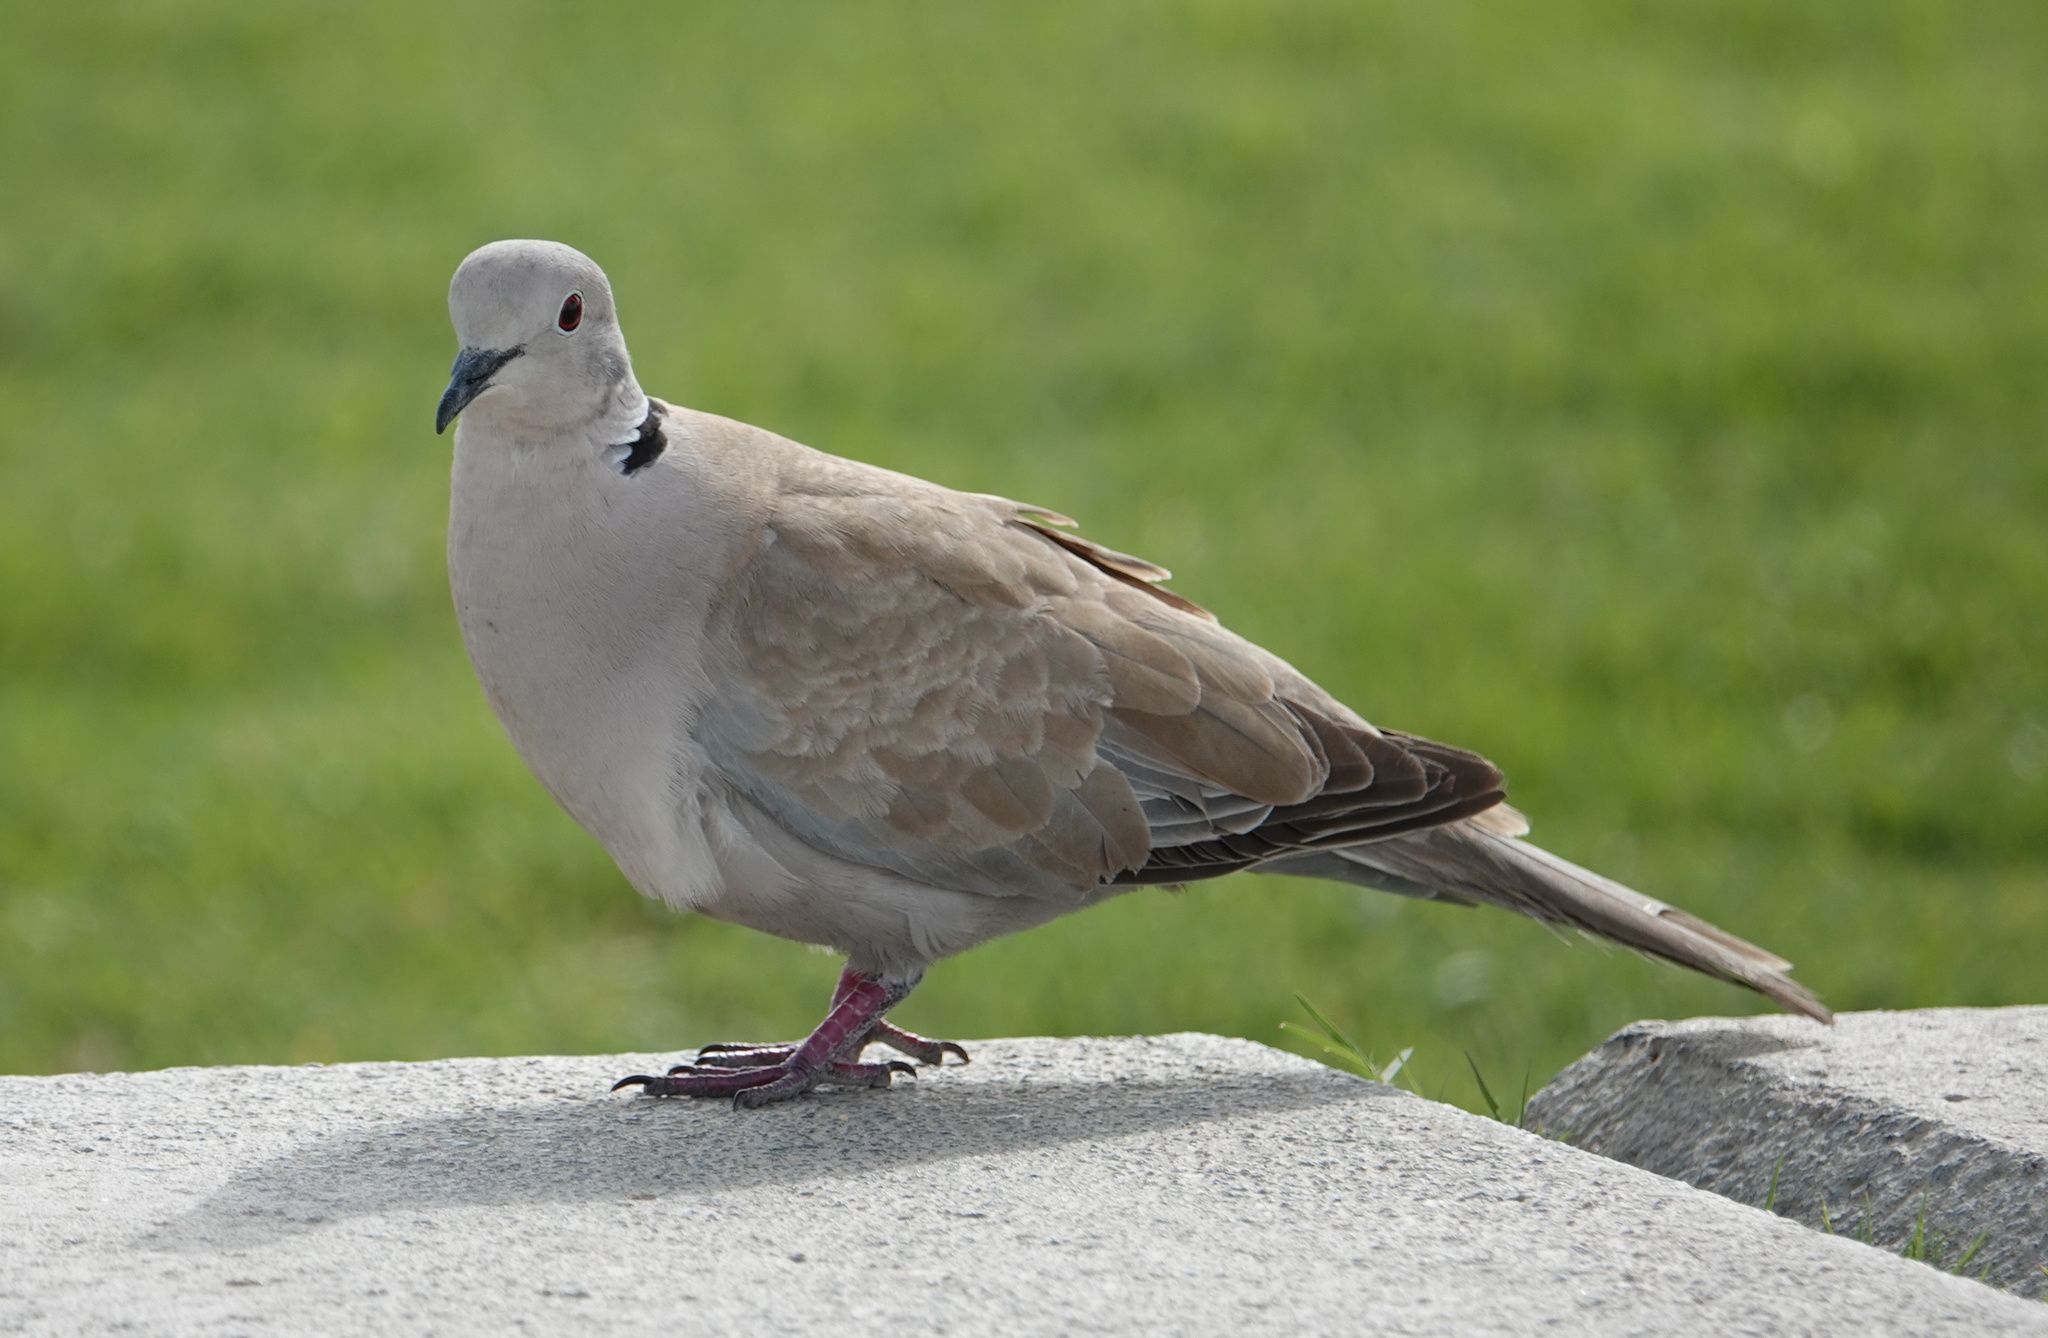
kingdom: Animalia
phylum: Chordata
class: Aves
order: Columbiformes
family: Columbidae
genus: Streptopelia
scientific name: Streptopelia decaocto
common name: Eurasian collared dove
